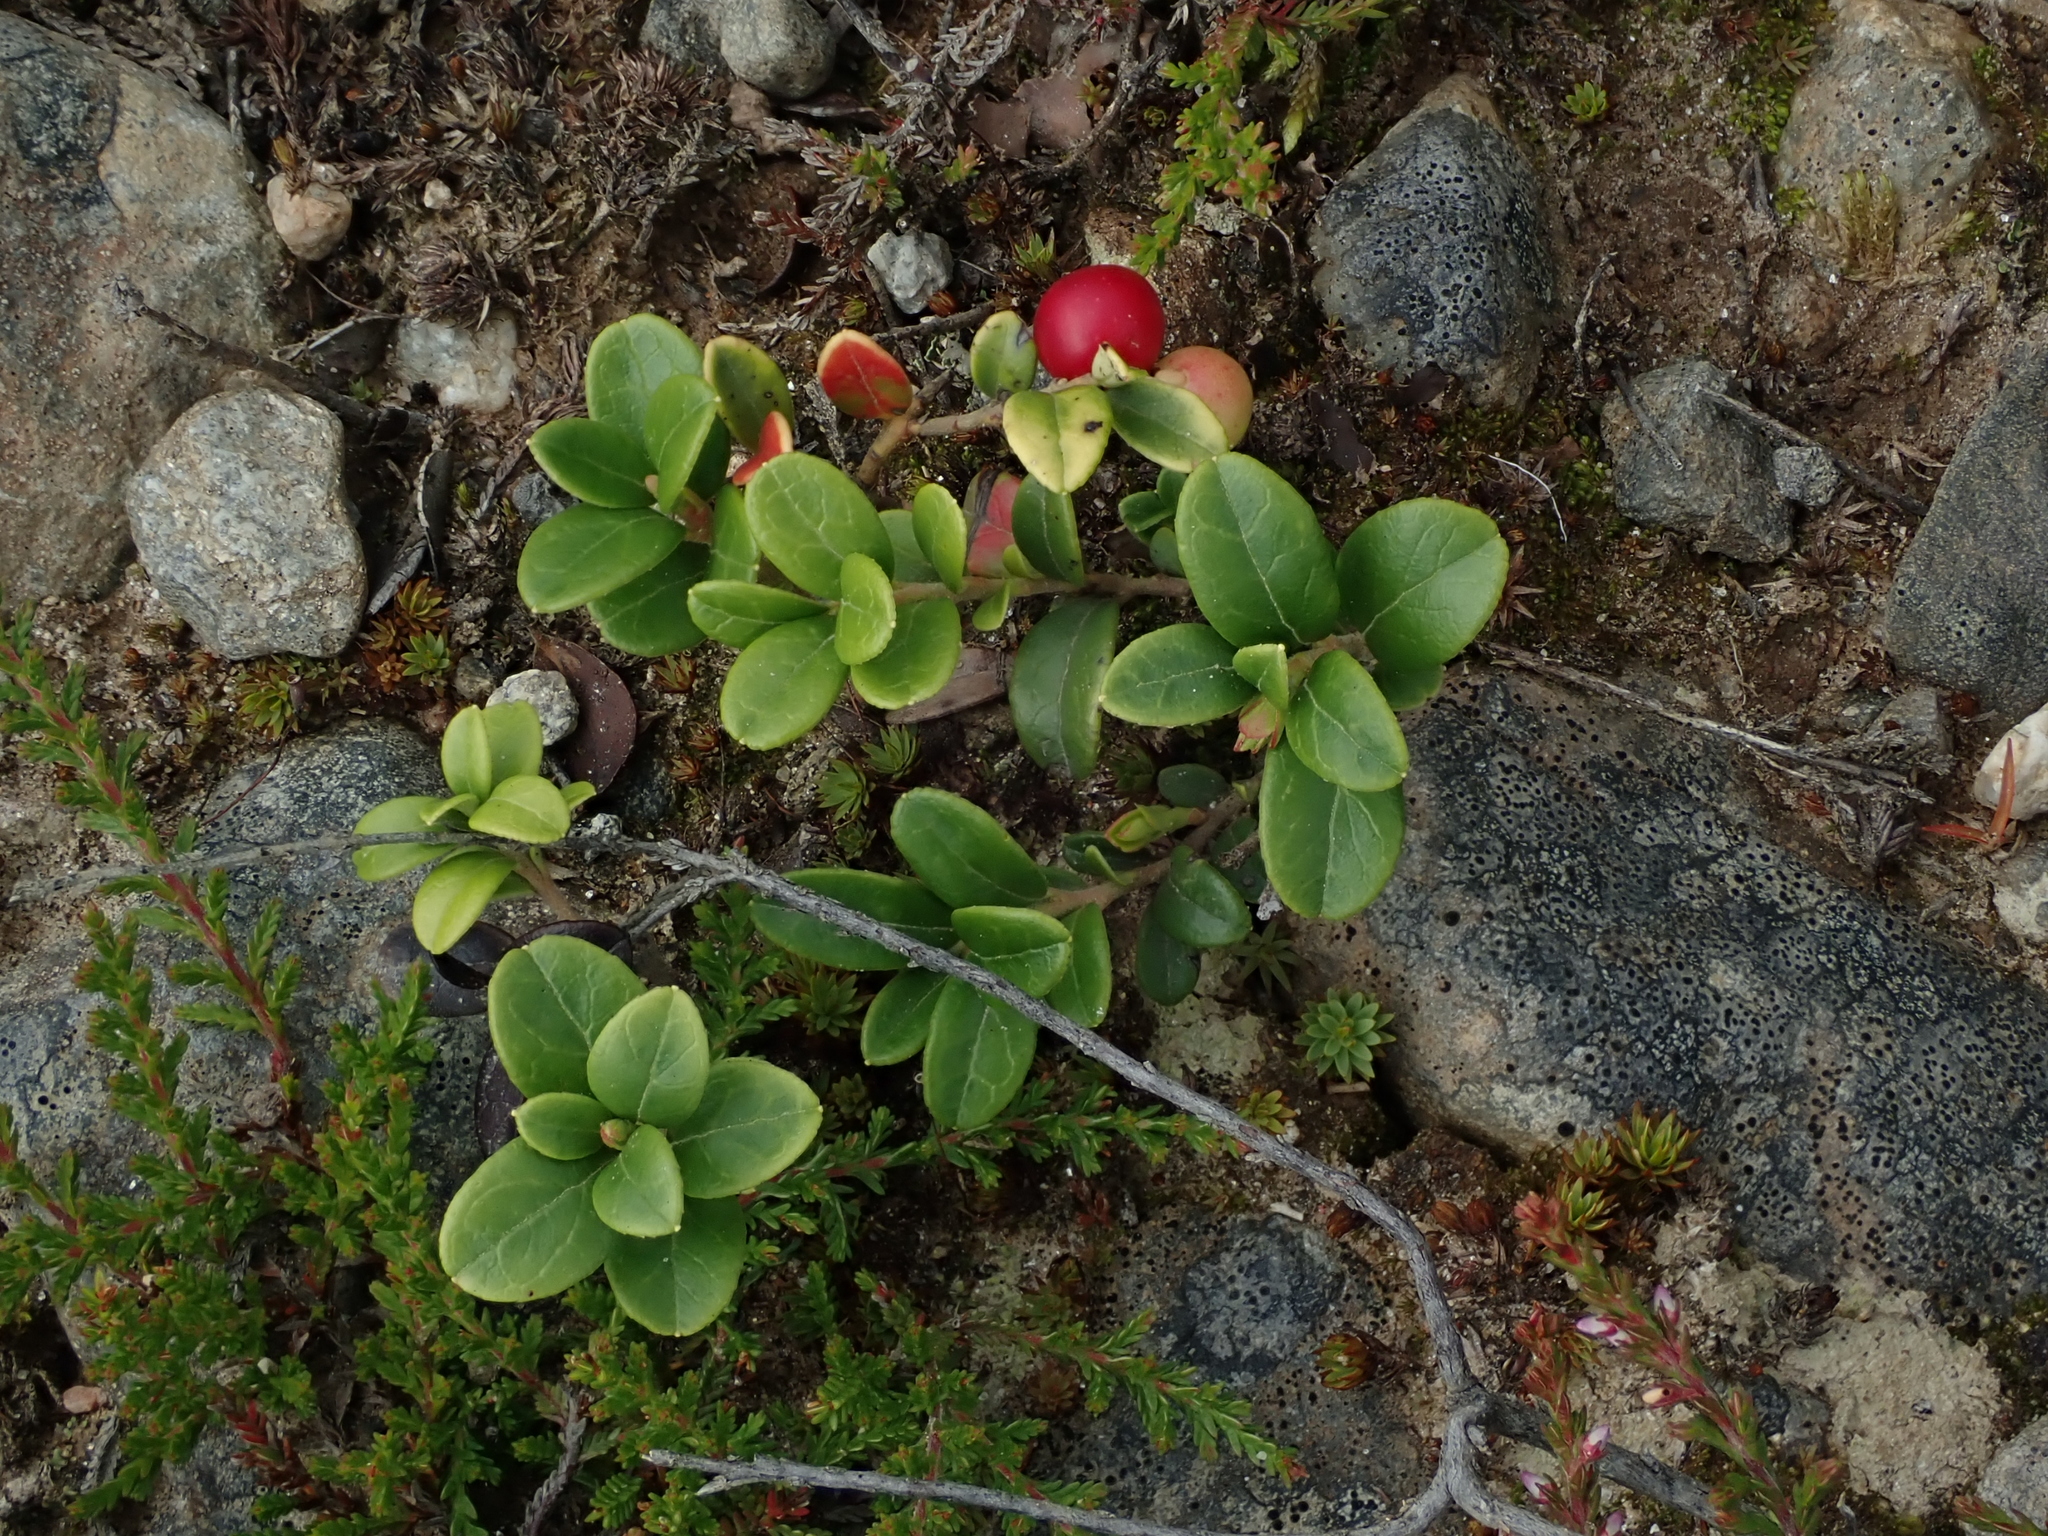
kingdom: Plantae
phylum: Tracheophyta
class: Magnoliopsida
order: Ericales
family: Ericaceae
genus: Vaccinium
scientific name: Vaccinium vitis-idaea
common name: Cowberry
